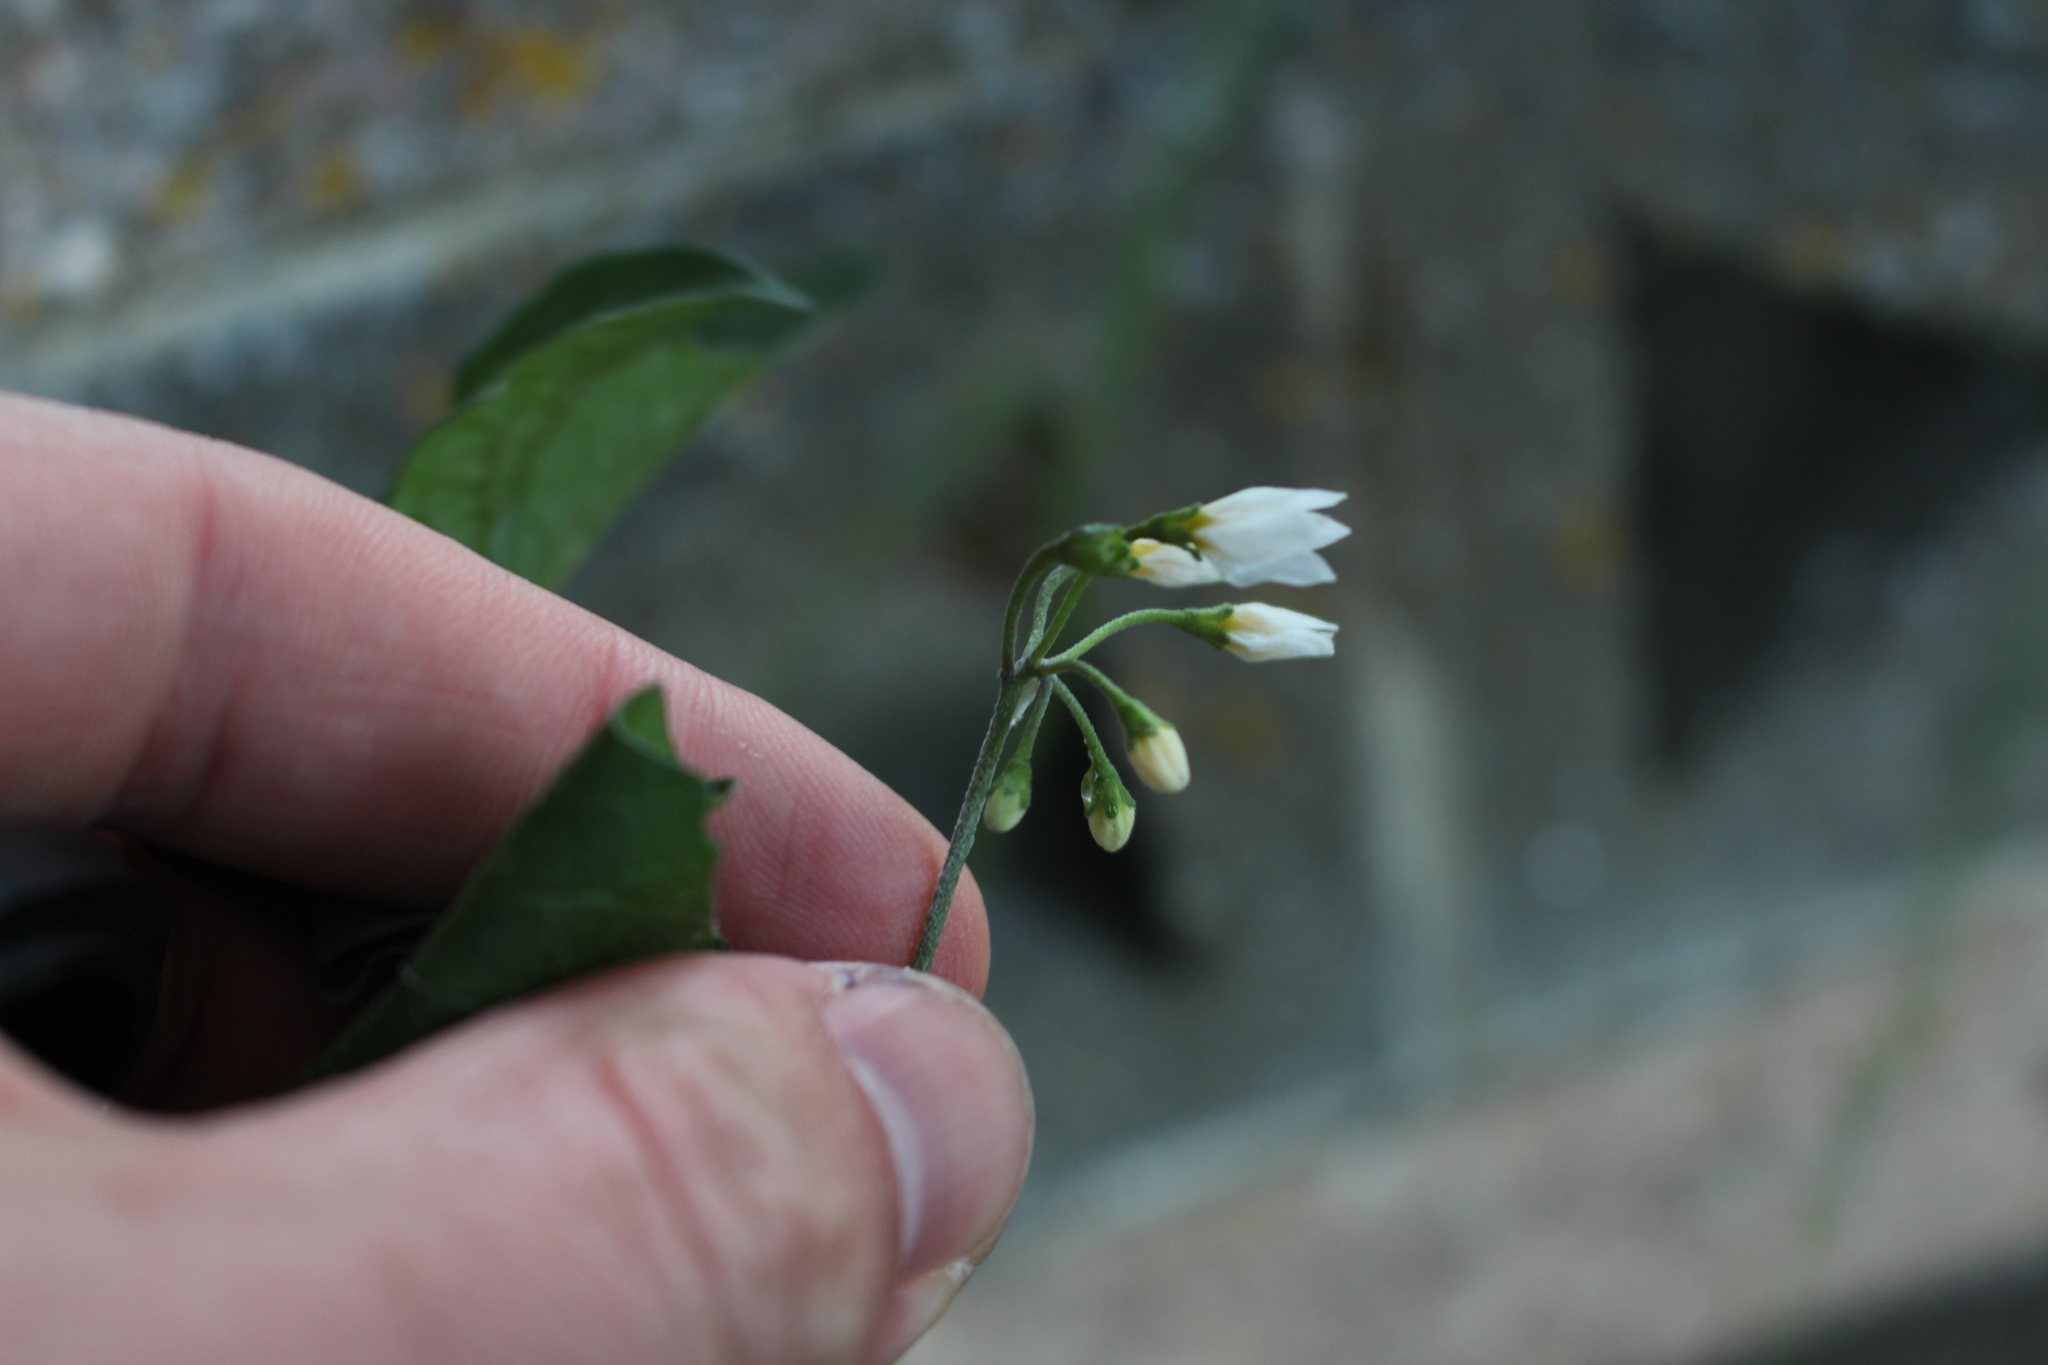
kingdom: Plantae
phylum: Tracheophyta
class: Magnoliopsida
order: Solanales
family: Solanaceae
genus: Solanum
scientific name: Solanum nigrum
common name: Black nightshade
